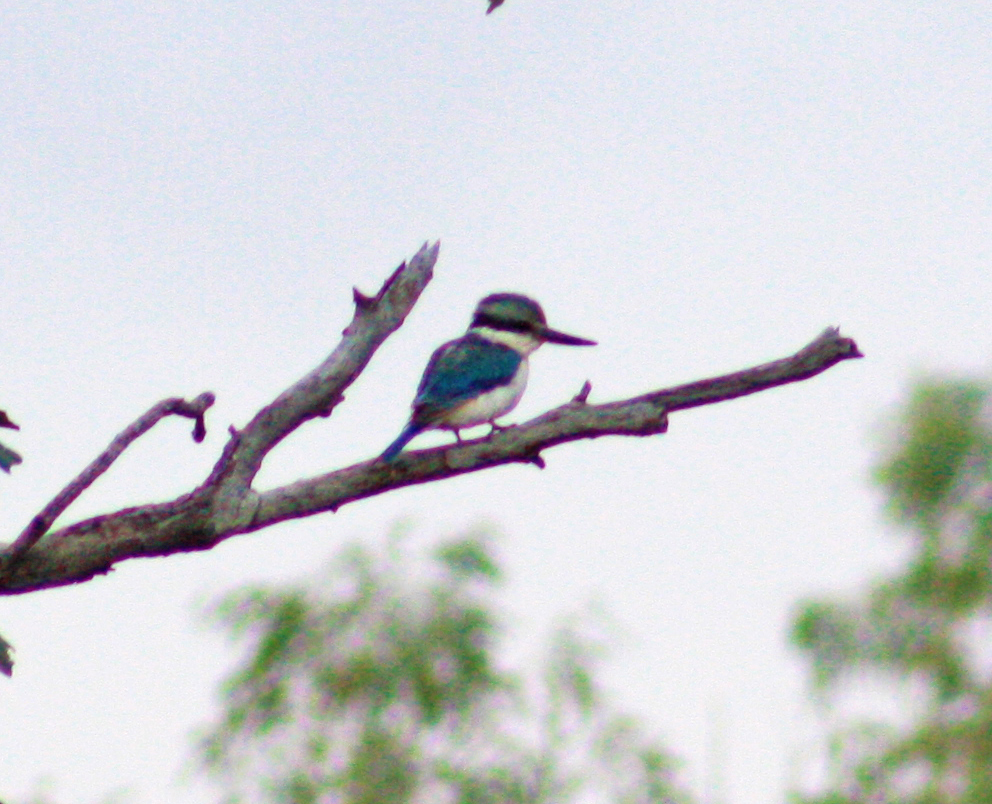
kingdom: Animalia
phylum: Chordata
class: Aves
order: Coraciiformes
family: Alcedinidae
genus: Todiramphus
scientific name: Todiramphus pyrrhopygius
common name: Red-backed kingfisher
